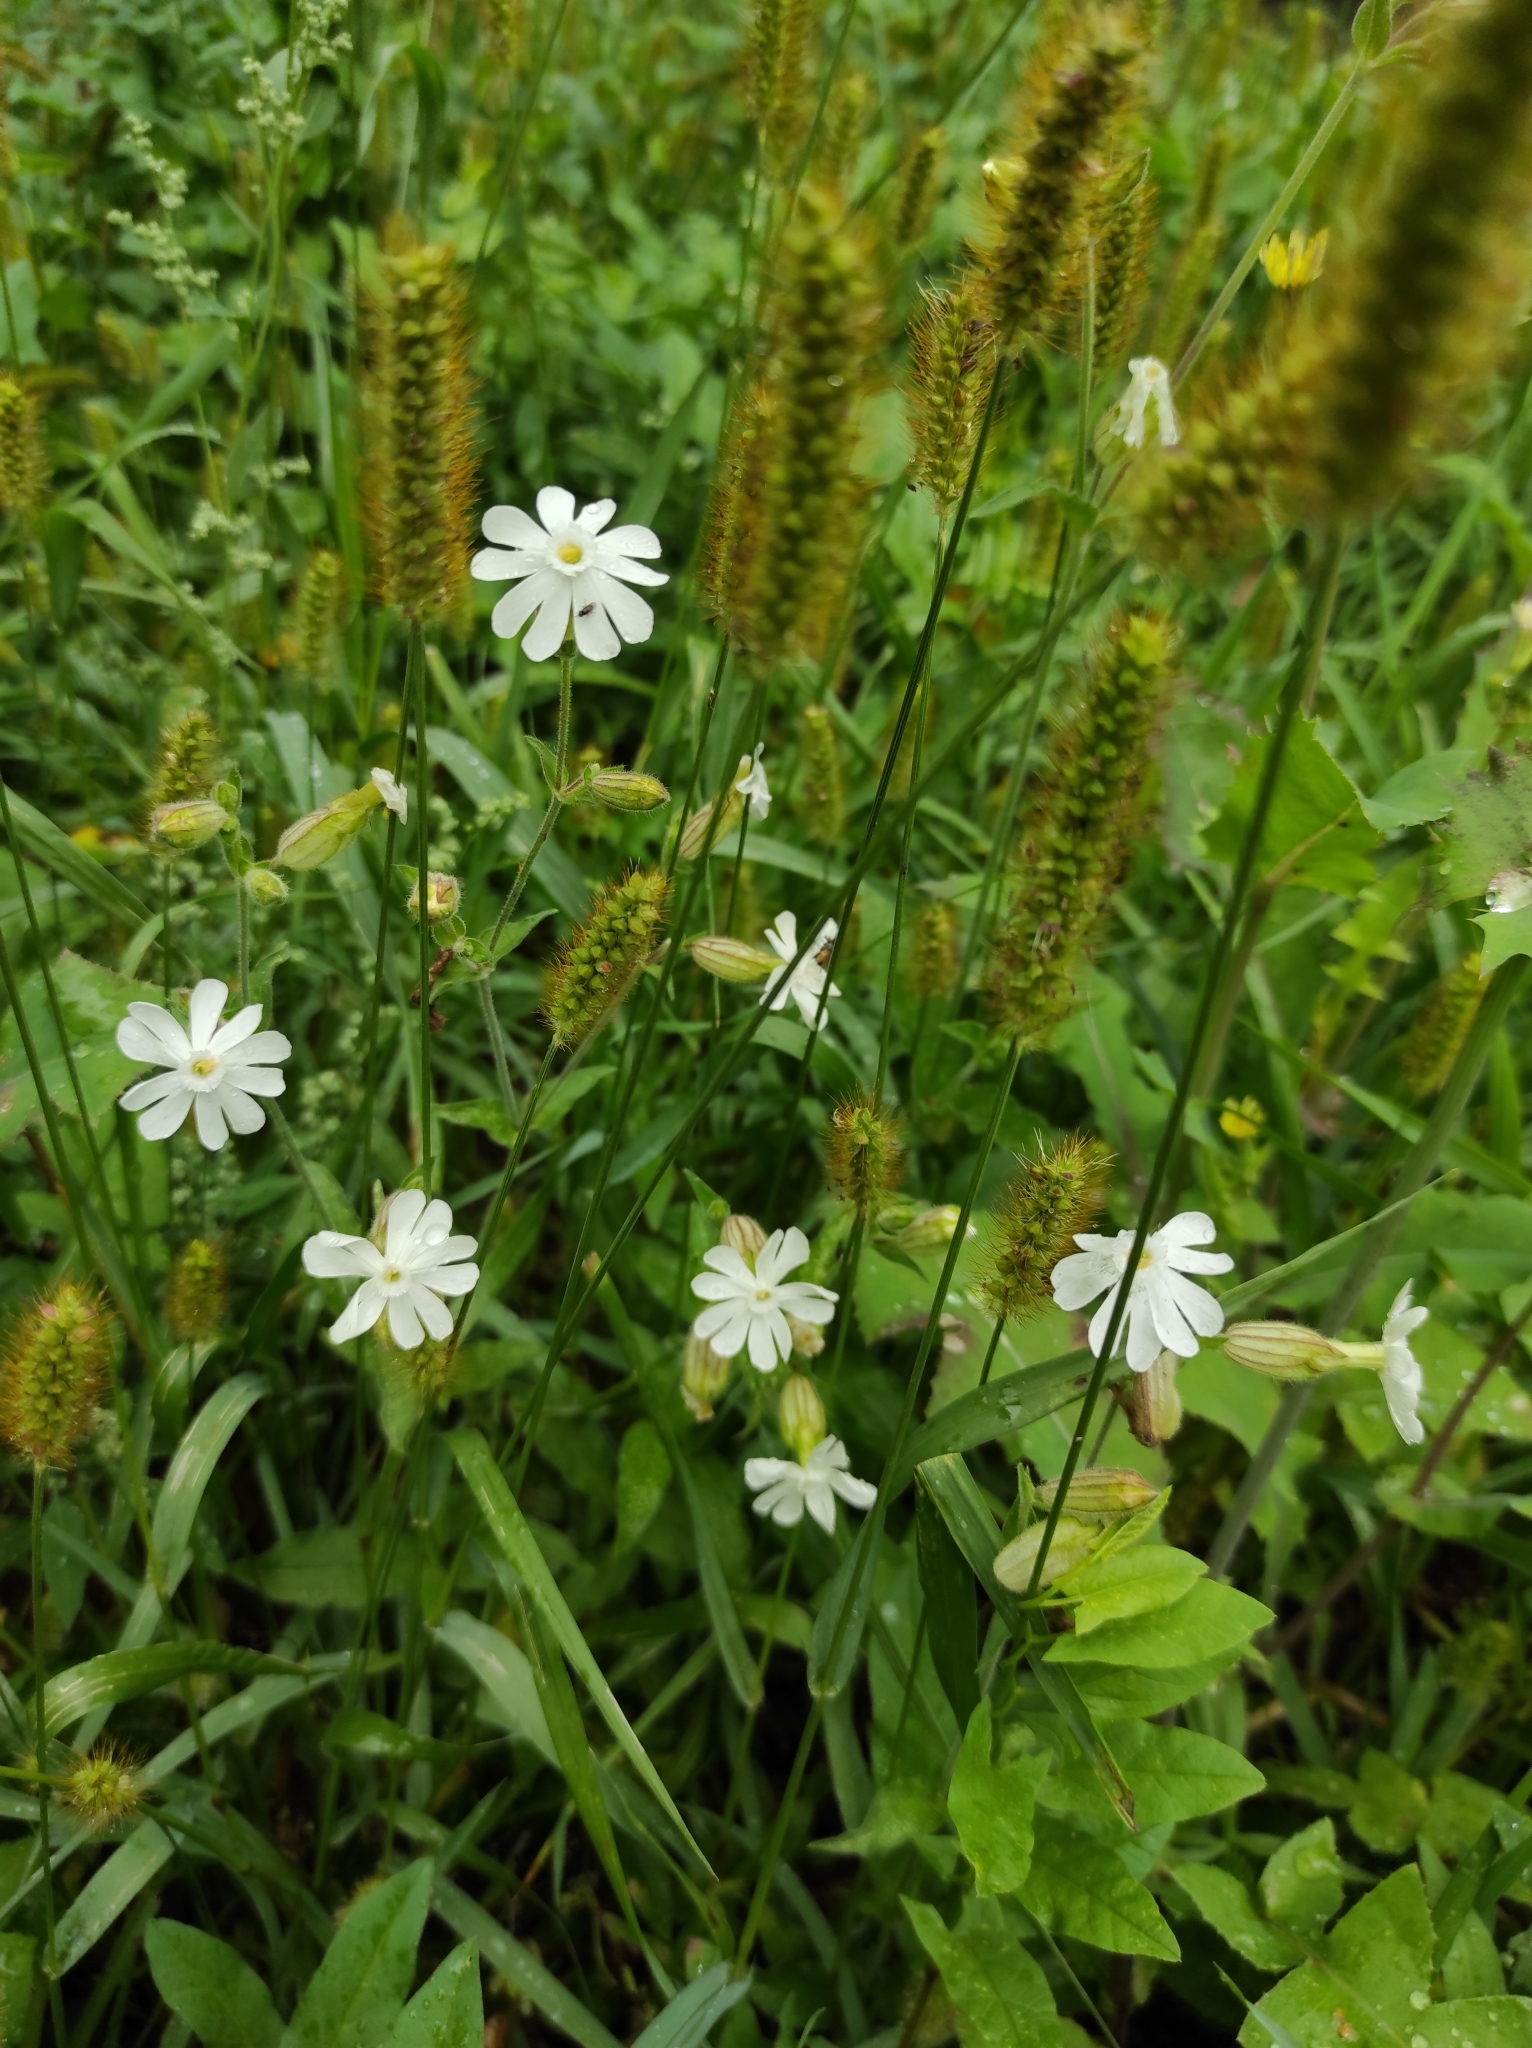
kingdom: Plantae
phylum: Tracheophyta
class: Magnoliopsida
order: Caryophyllales
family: Caryophyllaceae
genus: Silene
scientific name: Silene latifolia
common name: White campion
